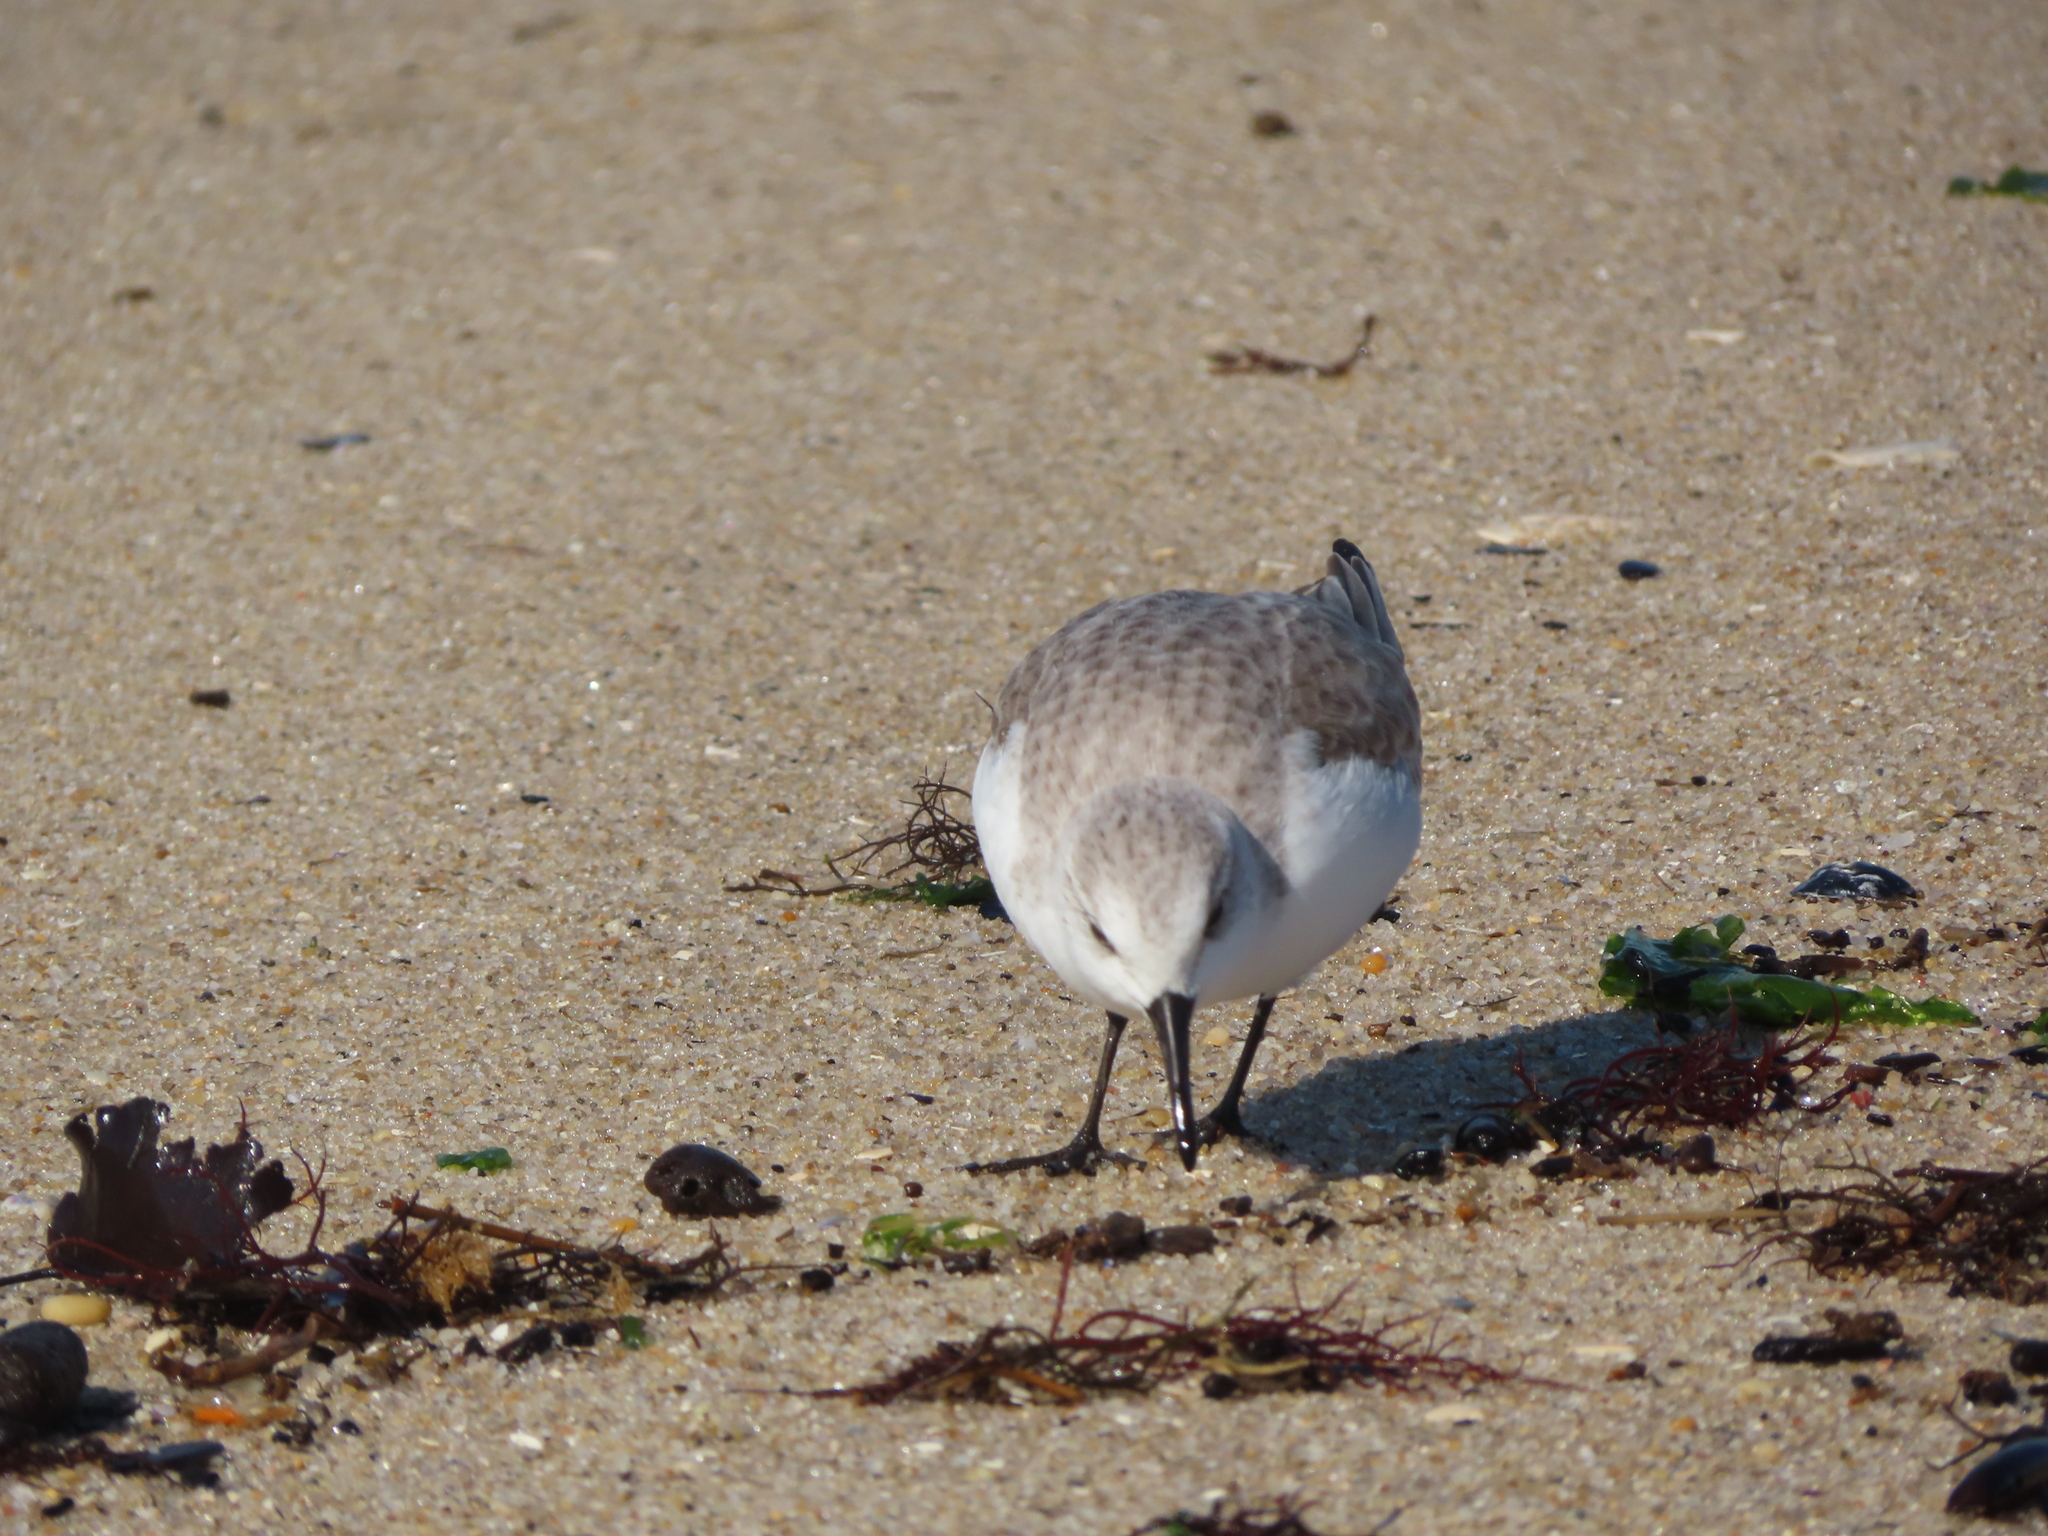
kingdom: Animalia
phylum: Chordata
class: Aves
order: Charadriiformes
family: Scolopacidae
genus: Calidris
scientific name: Calidris alba
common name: Sanderling
